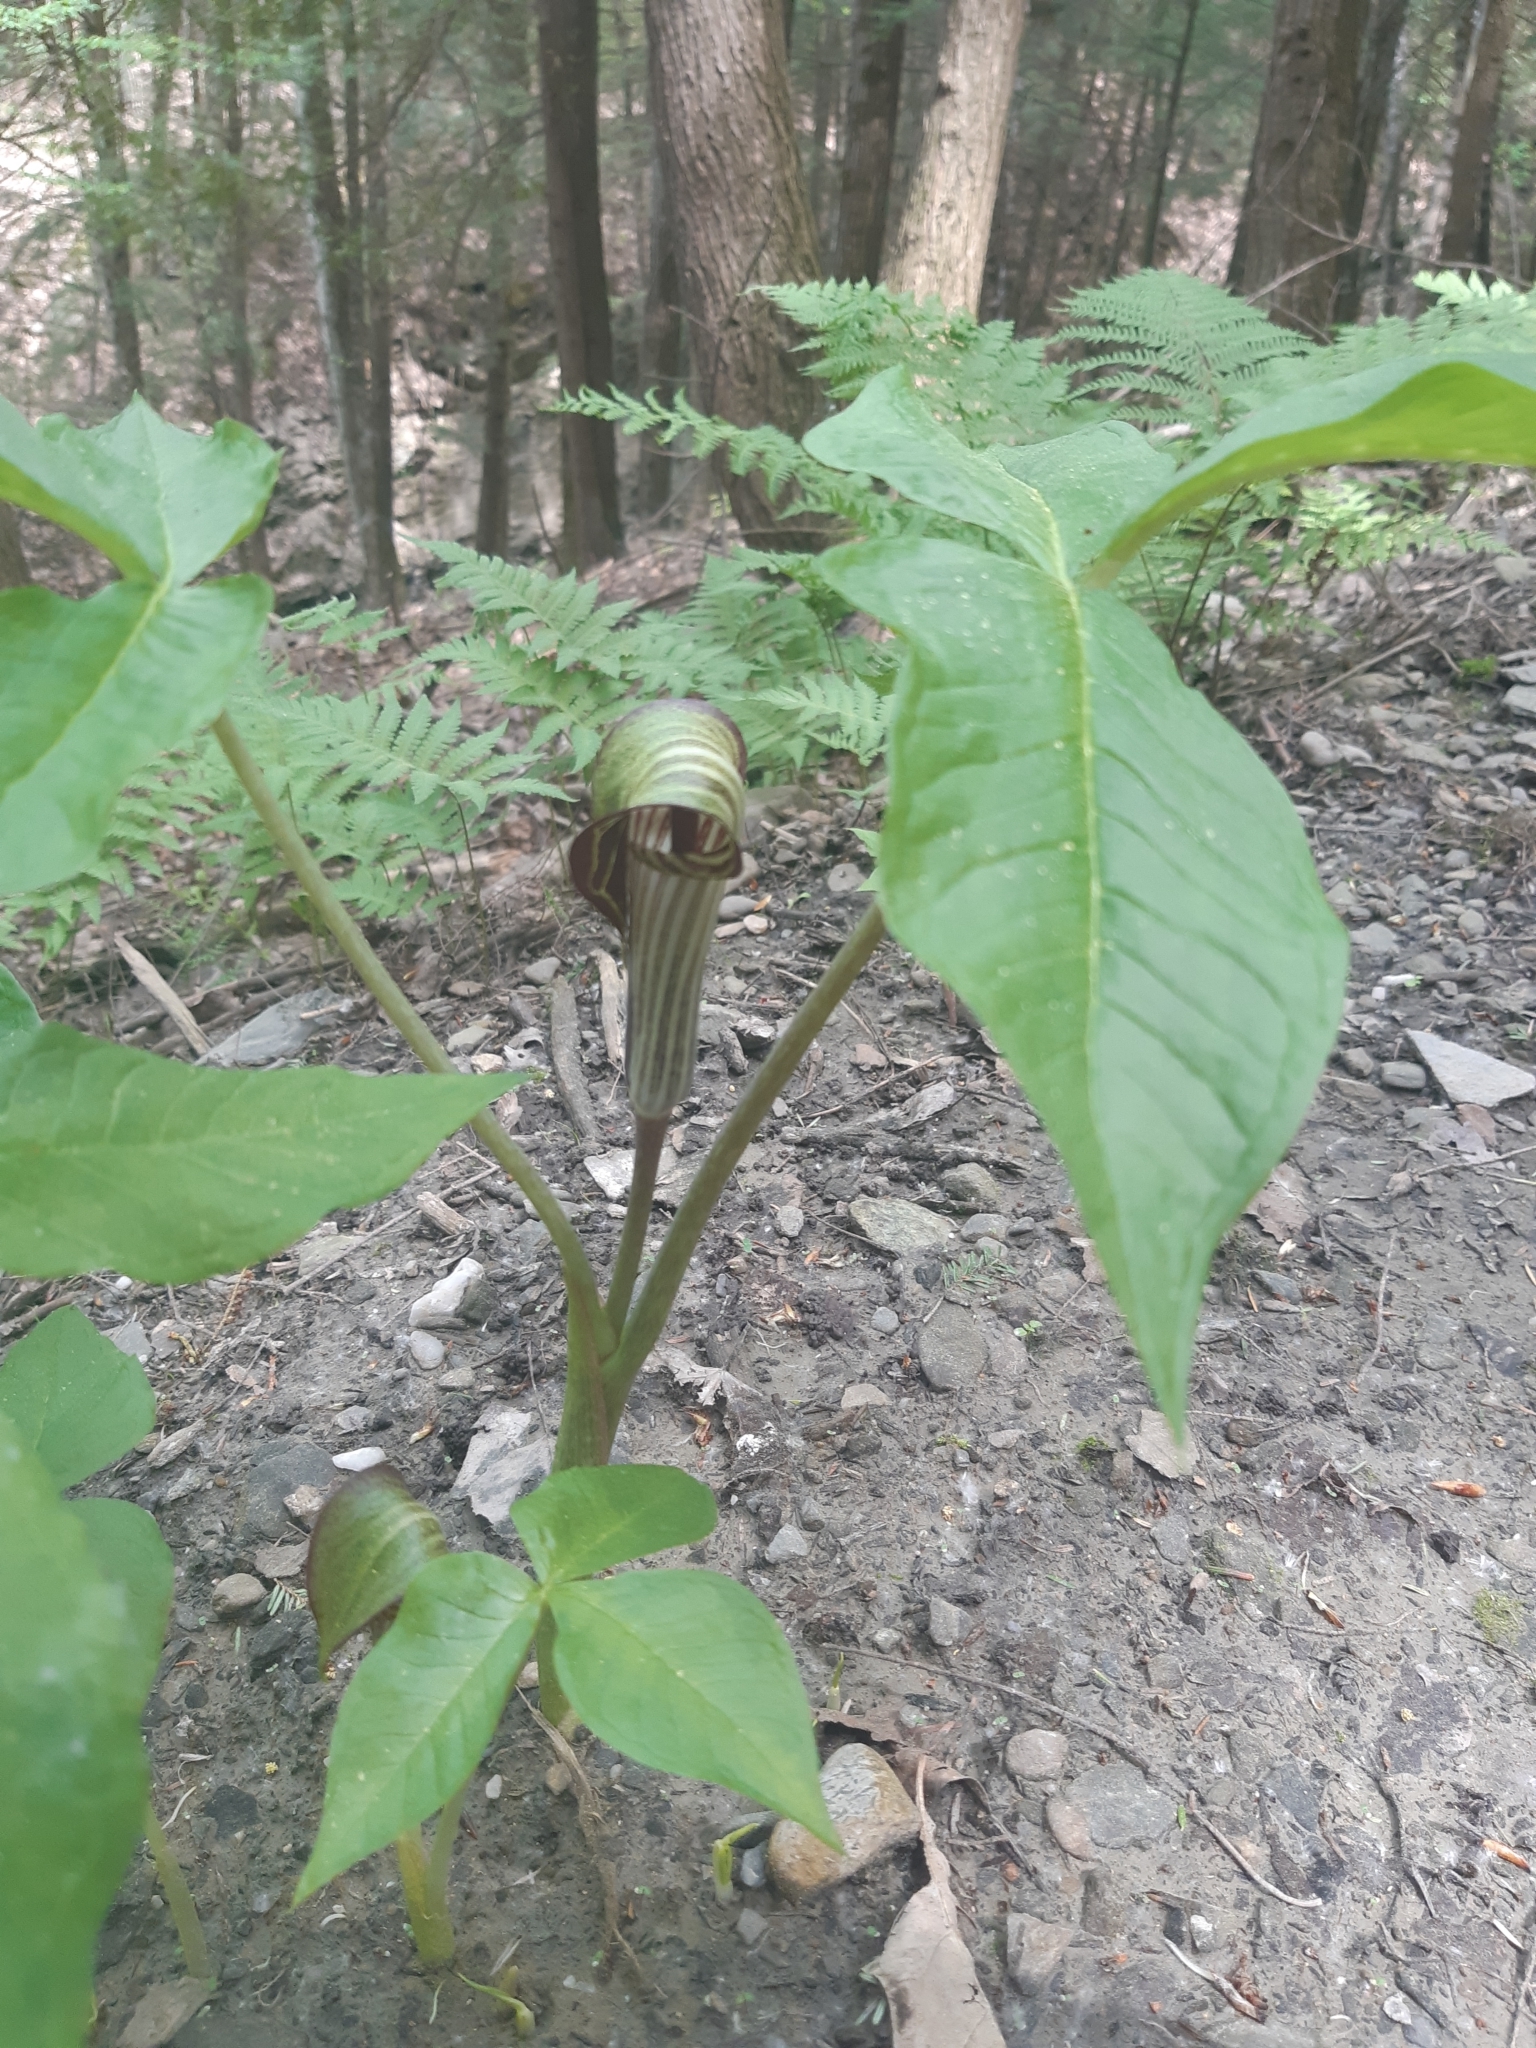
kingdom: Plantae
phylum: Tracheophyta
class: Liliopsida
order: Alismatales
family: Araceae
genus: Arisaema
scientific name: Arisaema triphyllum
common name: Jack-in-the-pulpit
